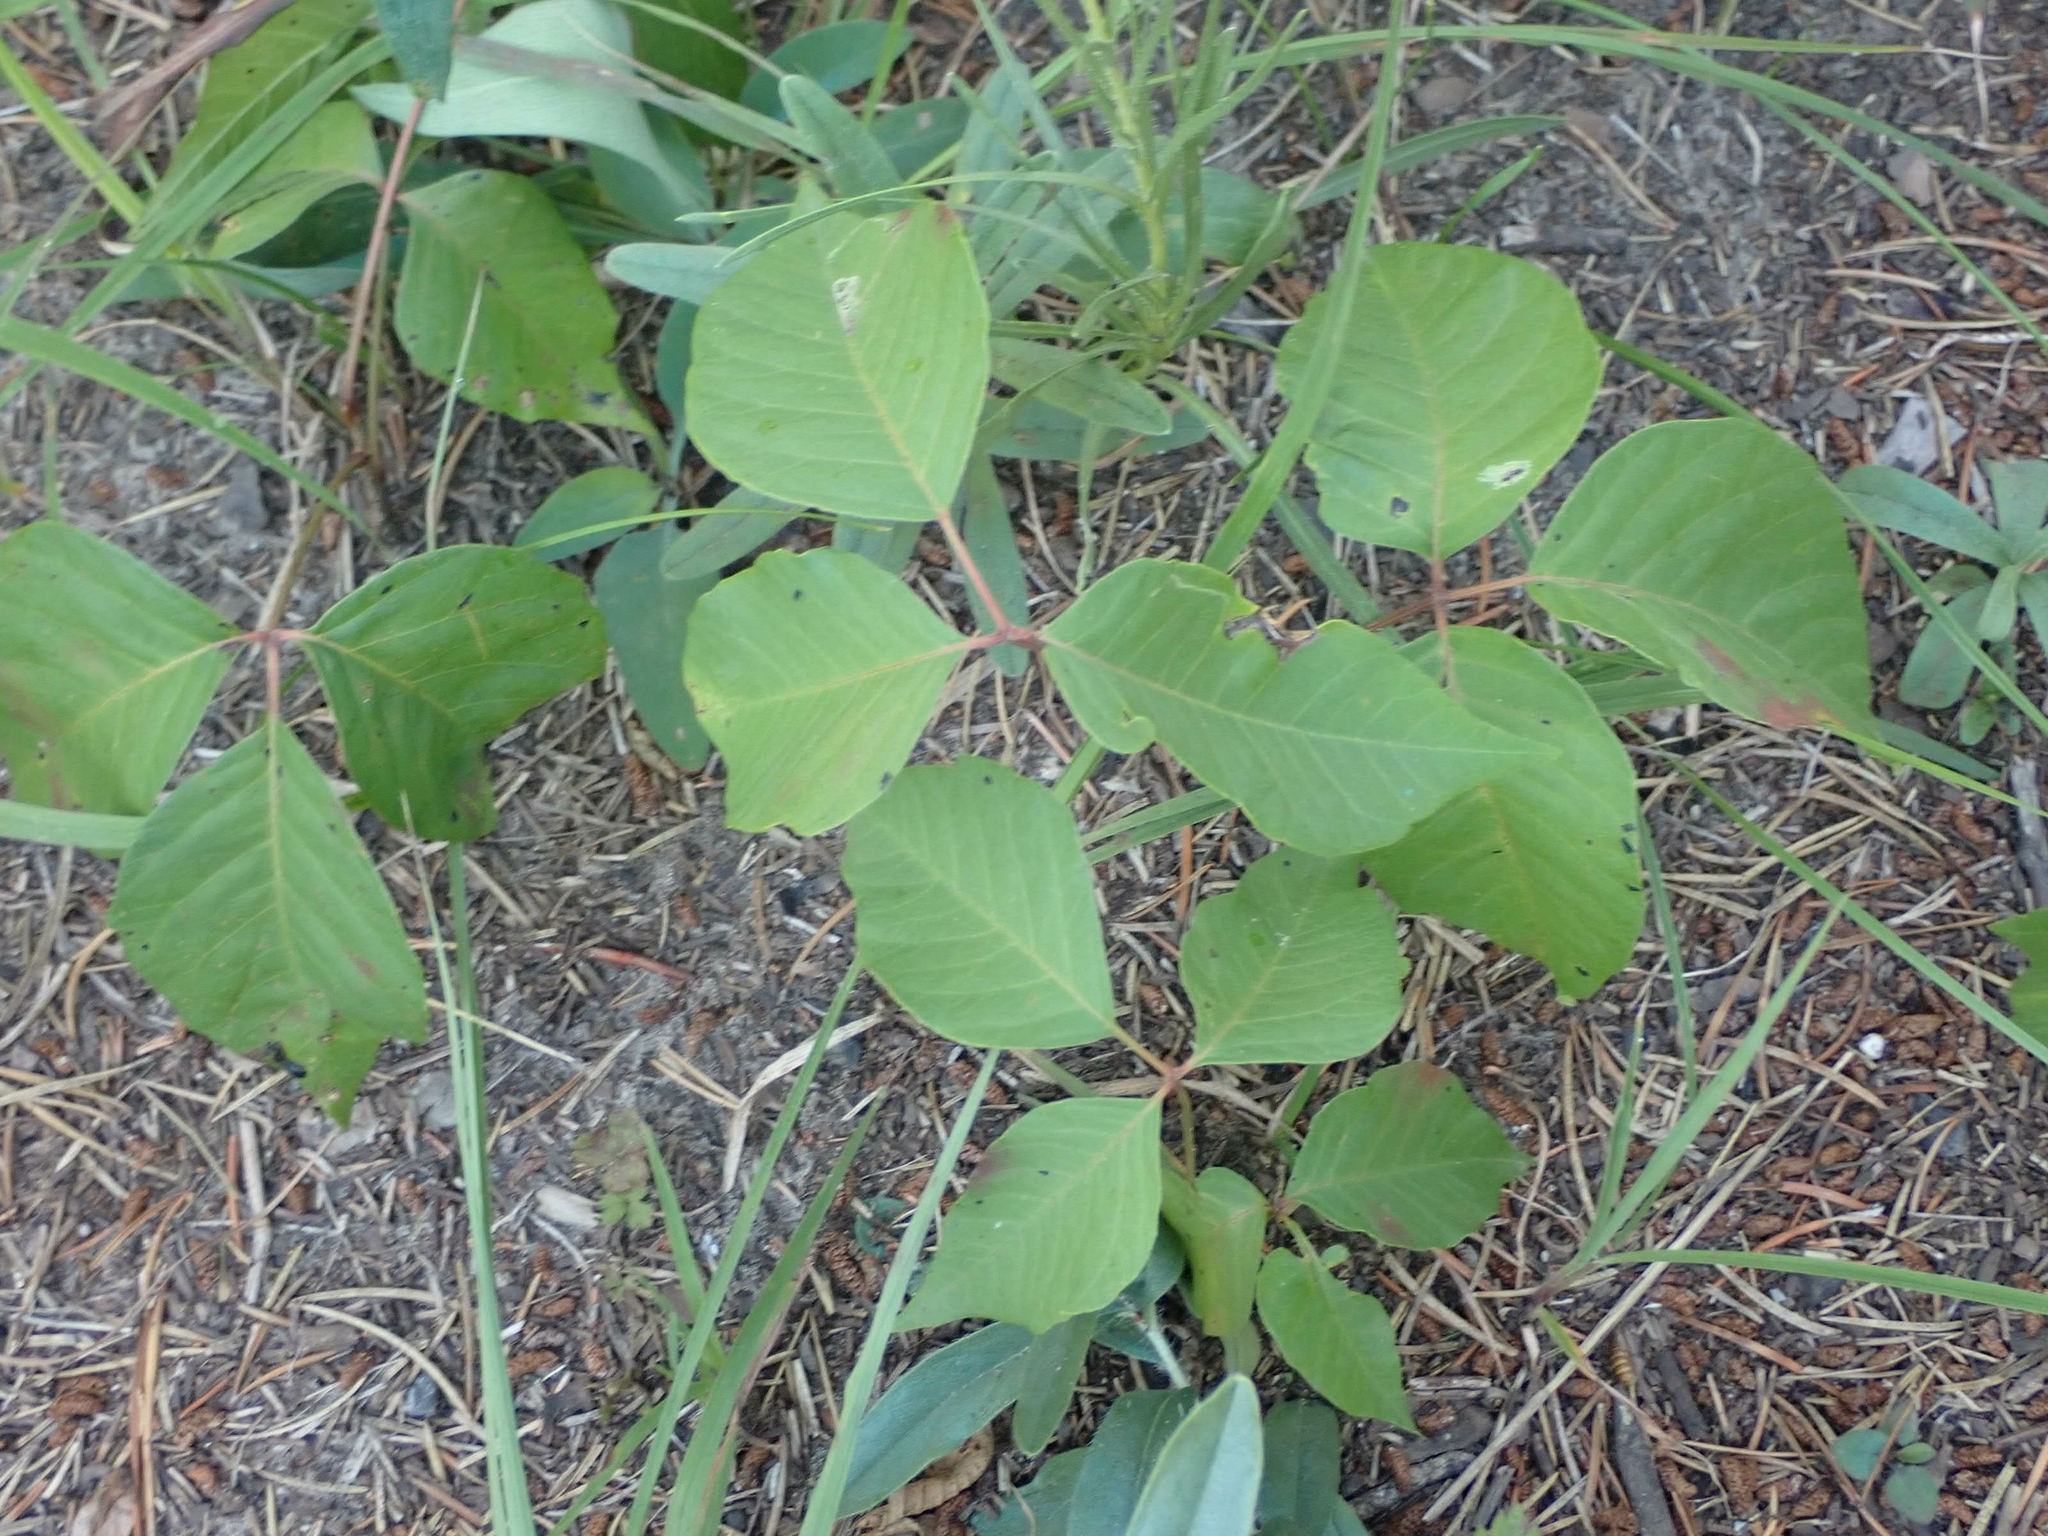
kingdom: Plantae
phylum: Tracheophyta
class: Magnoliopsida
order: Sapindales
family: Anacardiaceae
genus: Toxicodendron
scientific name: Toxicodendron rydbergii
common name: Rydberg's poison-ivy
